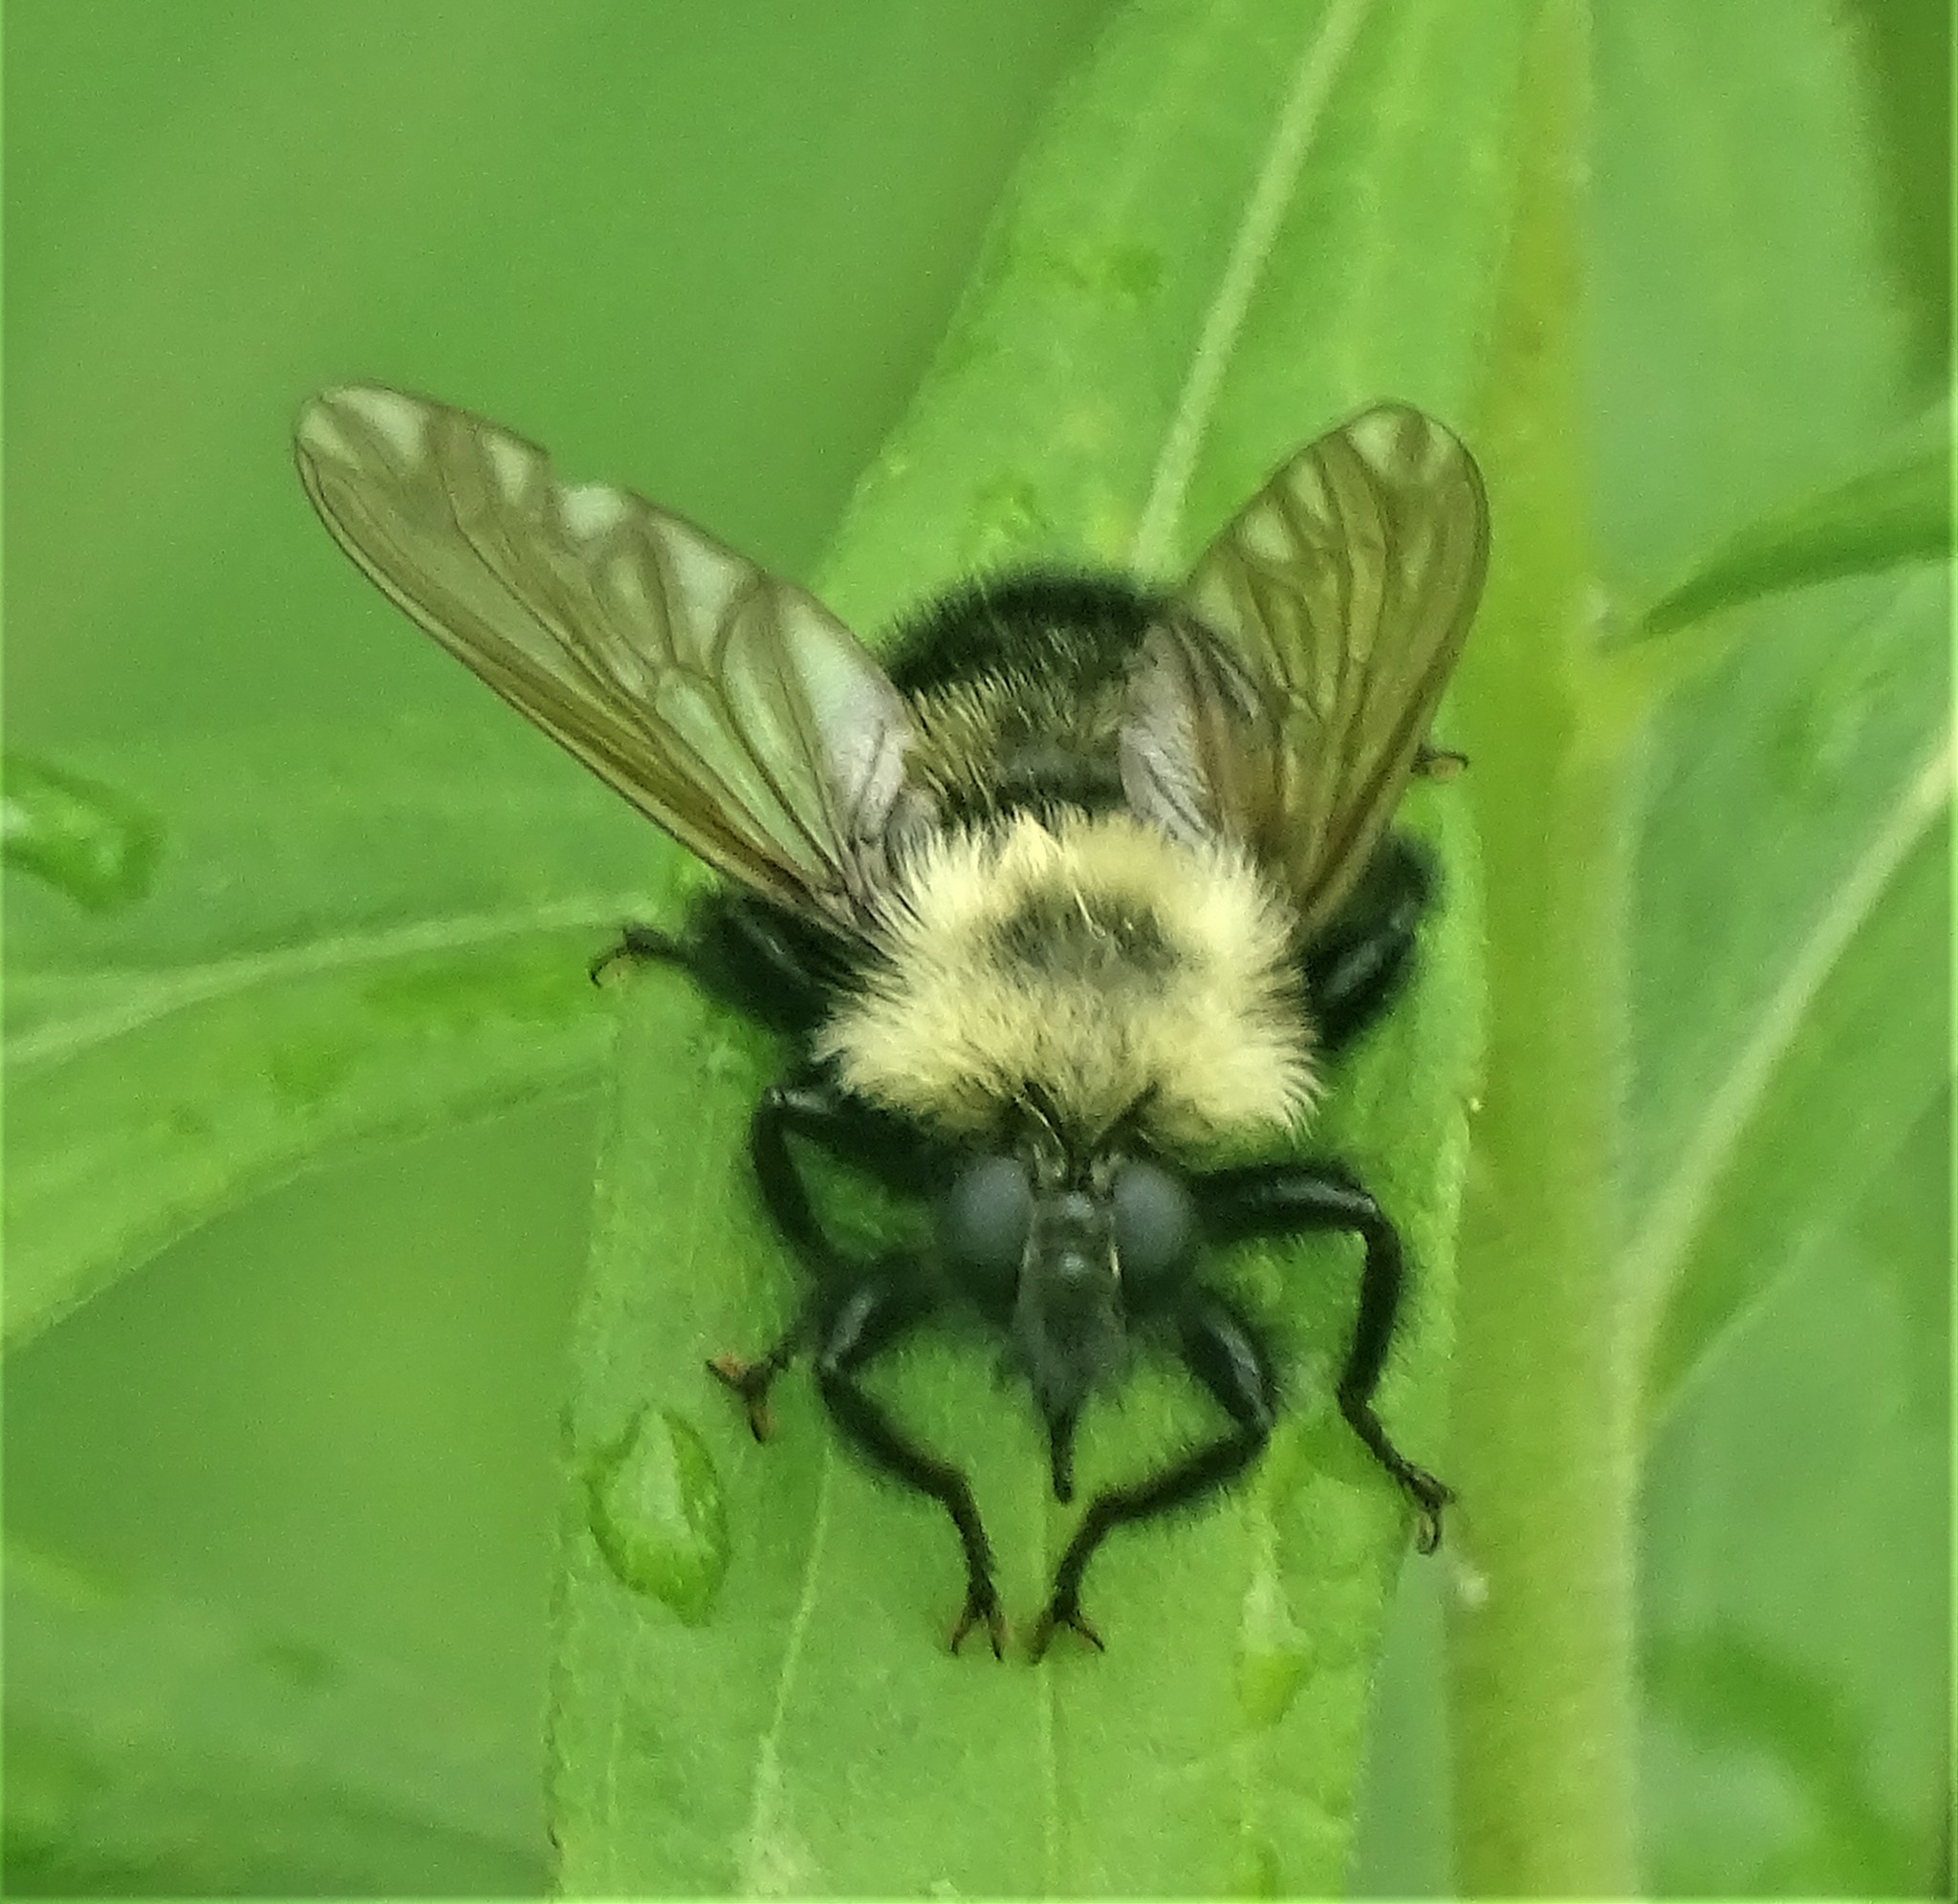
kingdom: Animalia
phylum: Arthropoda
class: Insecta
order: Diptera
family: Asilidae
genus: Laphria
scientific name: Laphria thoracica
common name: Bumble bee mimic robber fly
